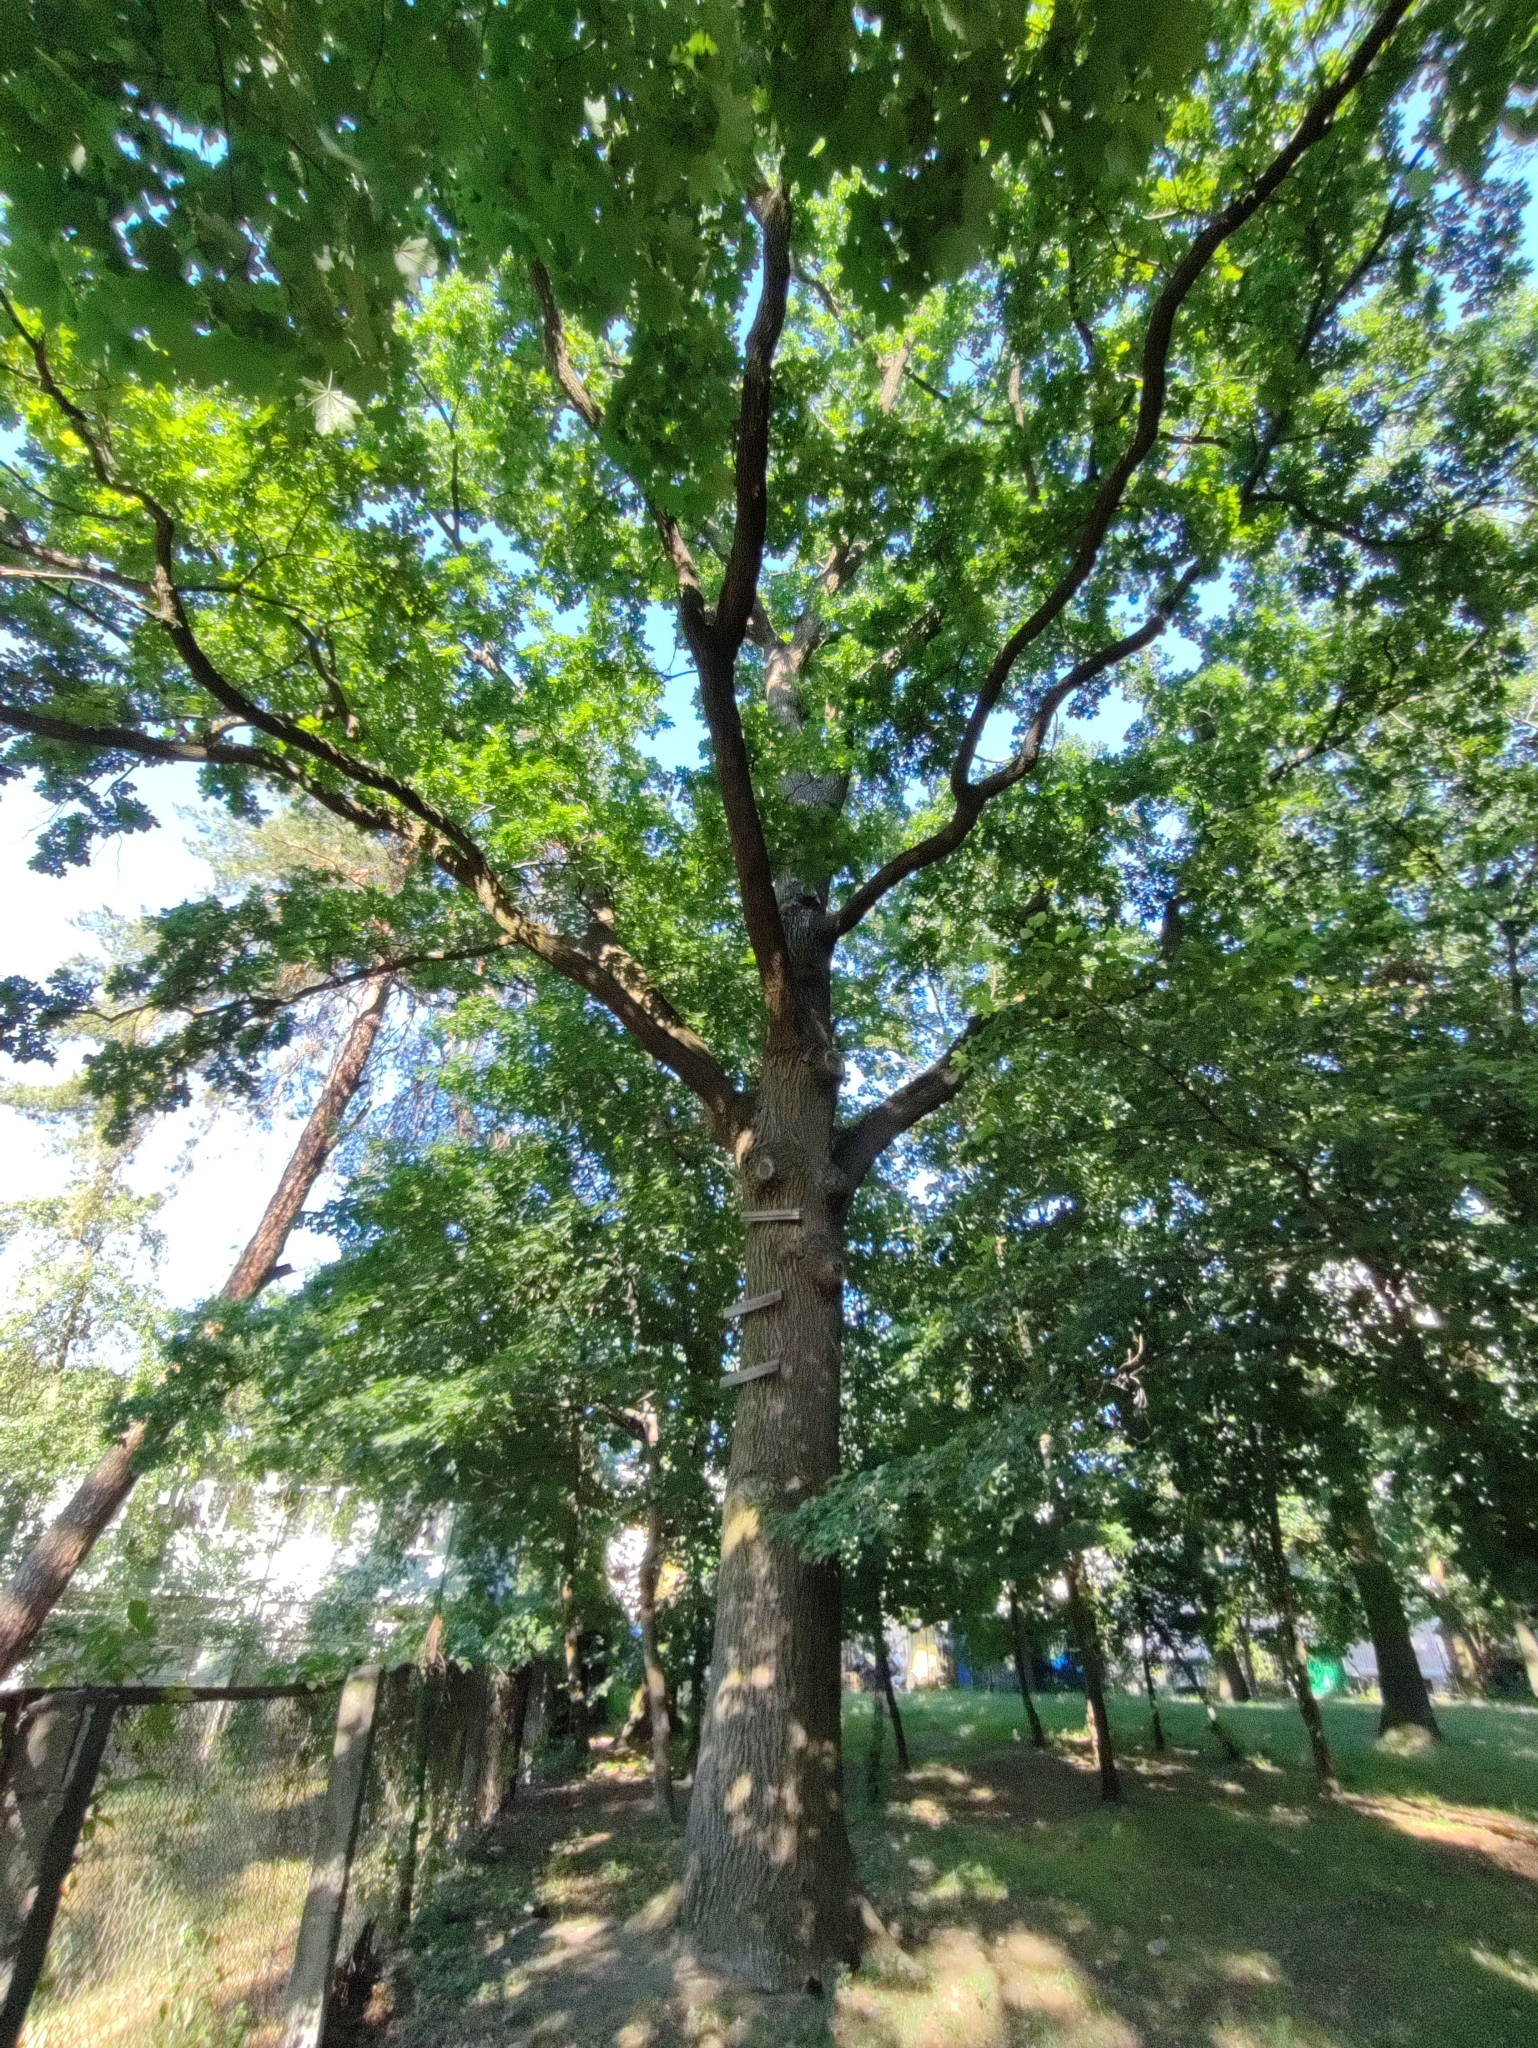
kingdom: Plantae
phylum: Tracheophyta
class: Magnoliopsida
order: Fagales
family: Fagaceae
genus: Quercus
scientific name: Quercus robur
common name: Pedunculate oak
